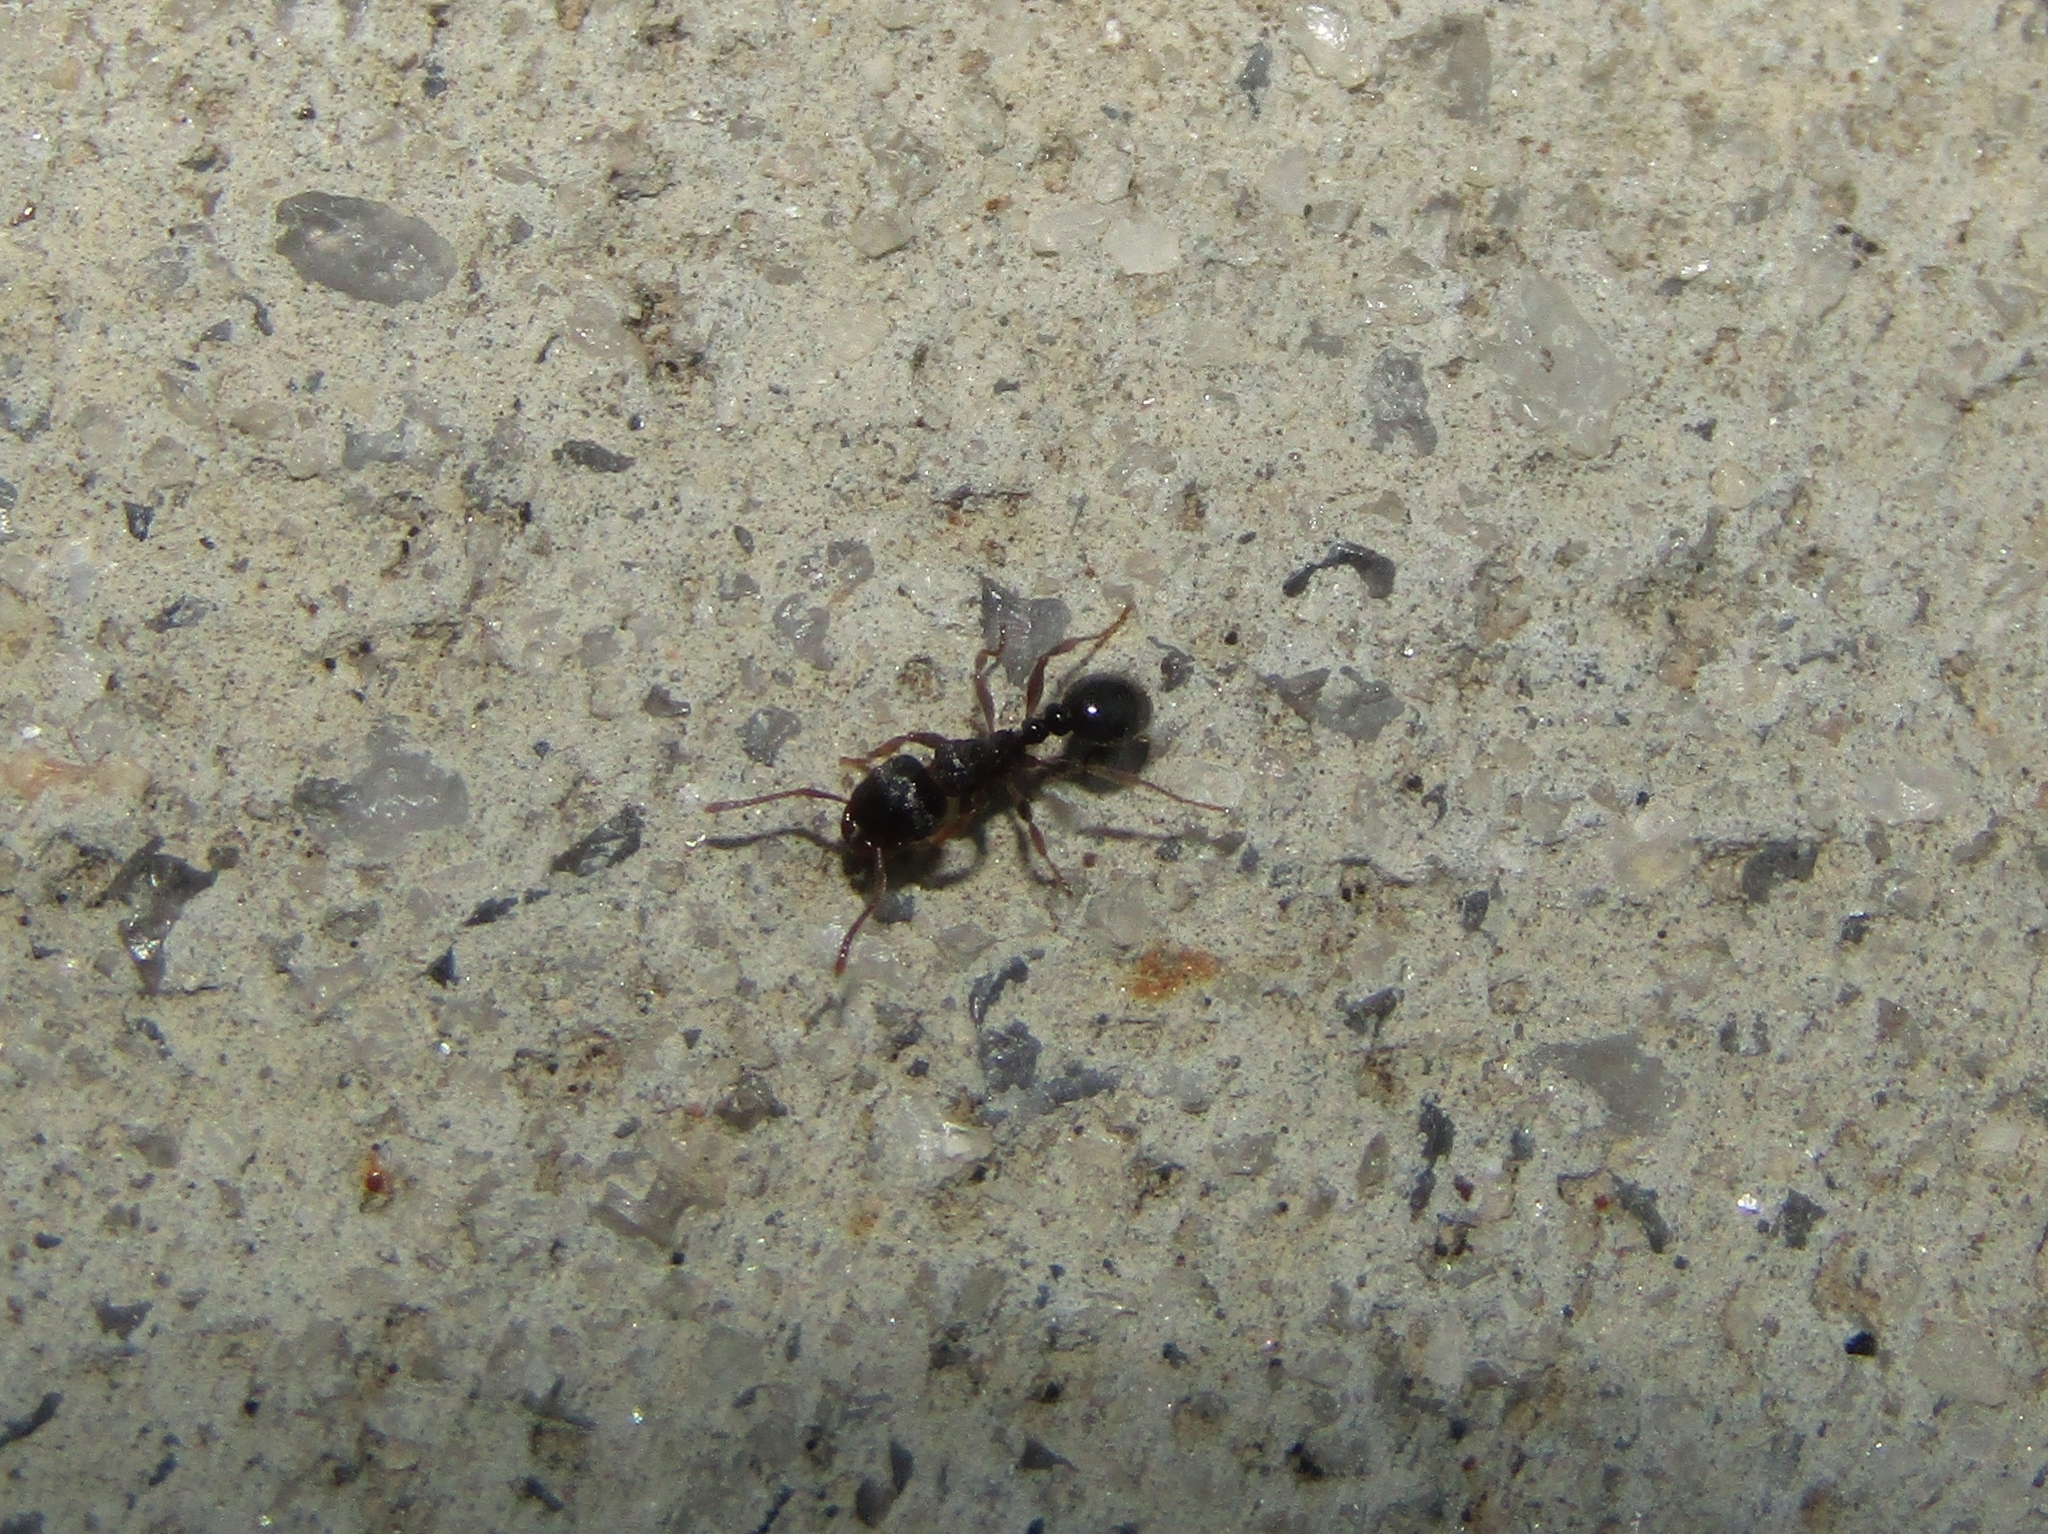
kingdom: Animalia
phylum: Arthropoda
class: Insecta
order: Hymenoptera
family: Formicidae
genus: Tetramorium
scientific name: Tetramorium immigrans
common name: Pavement ant
